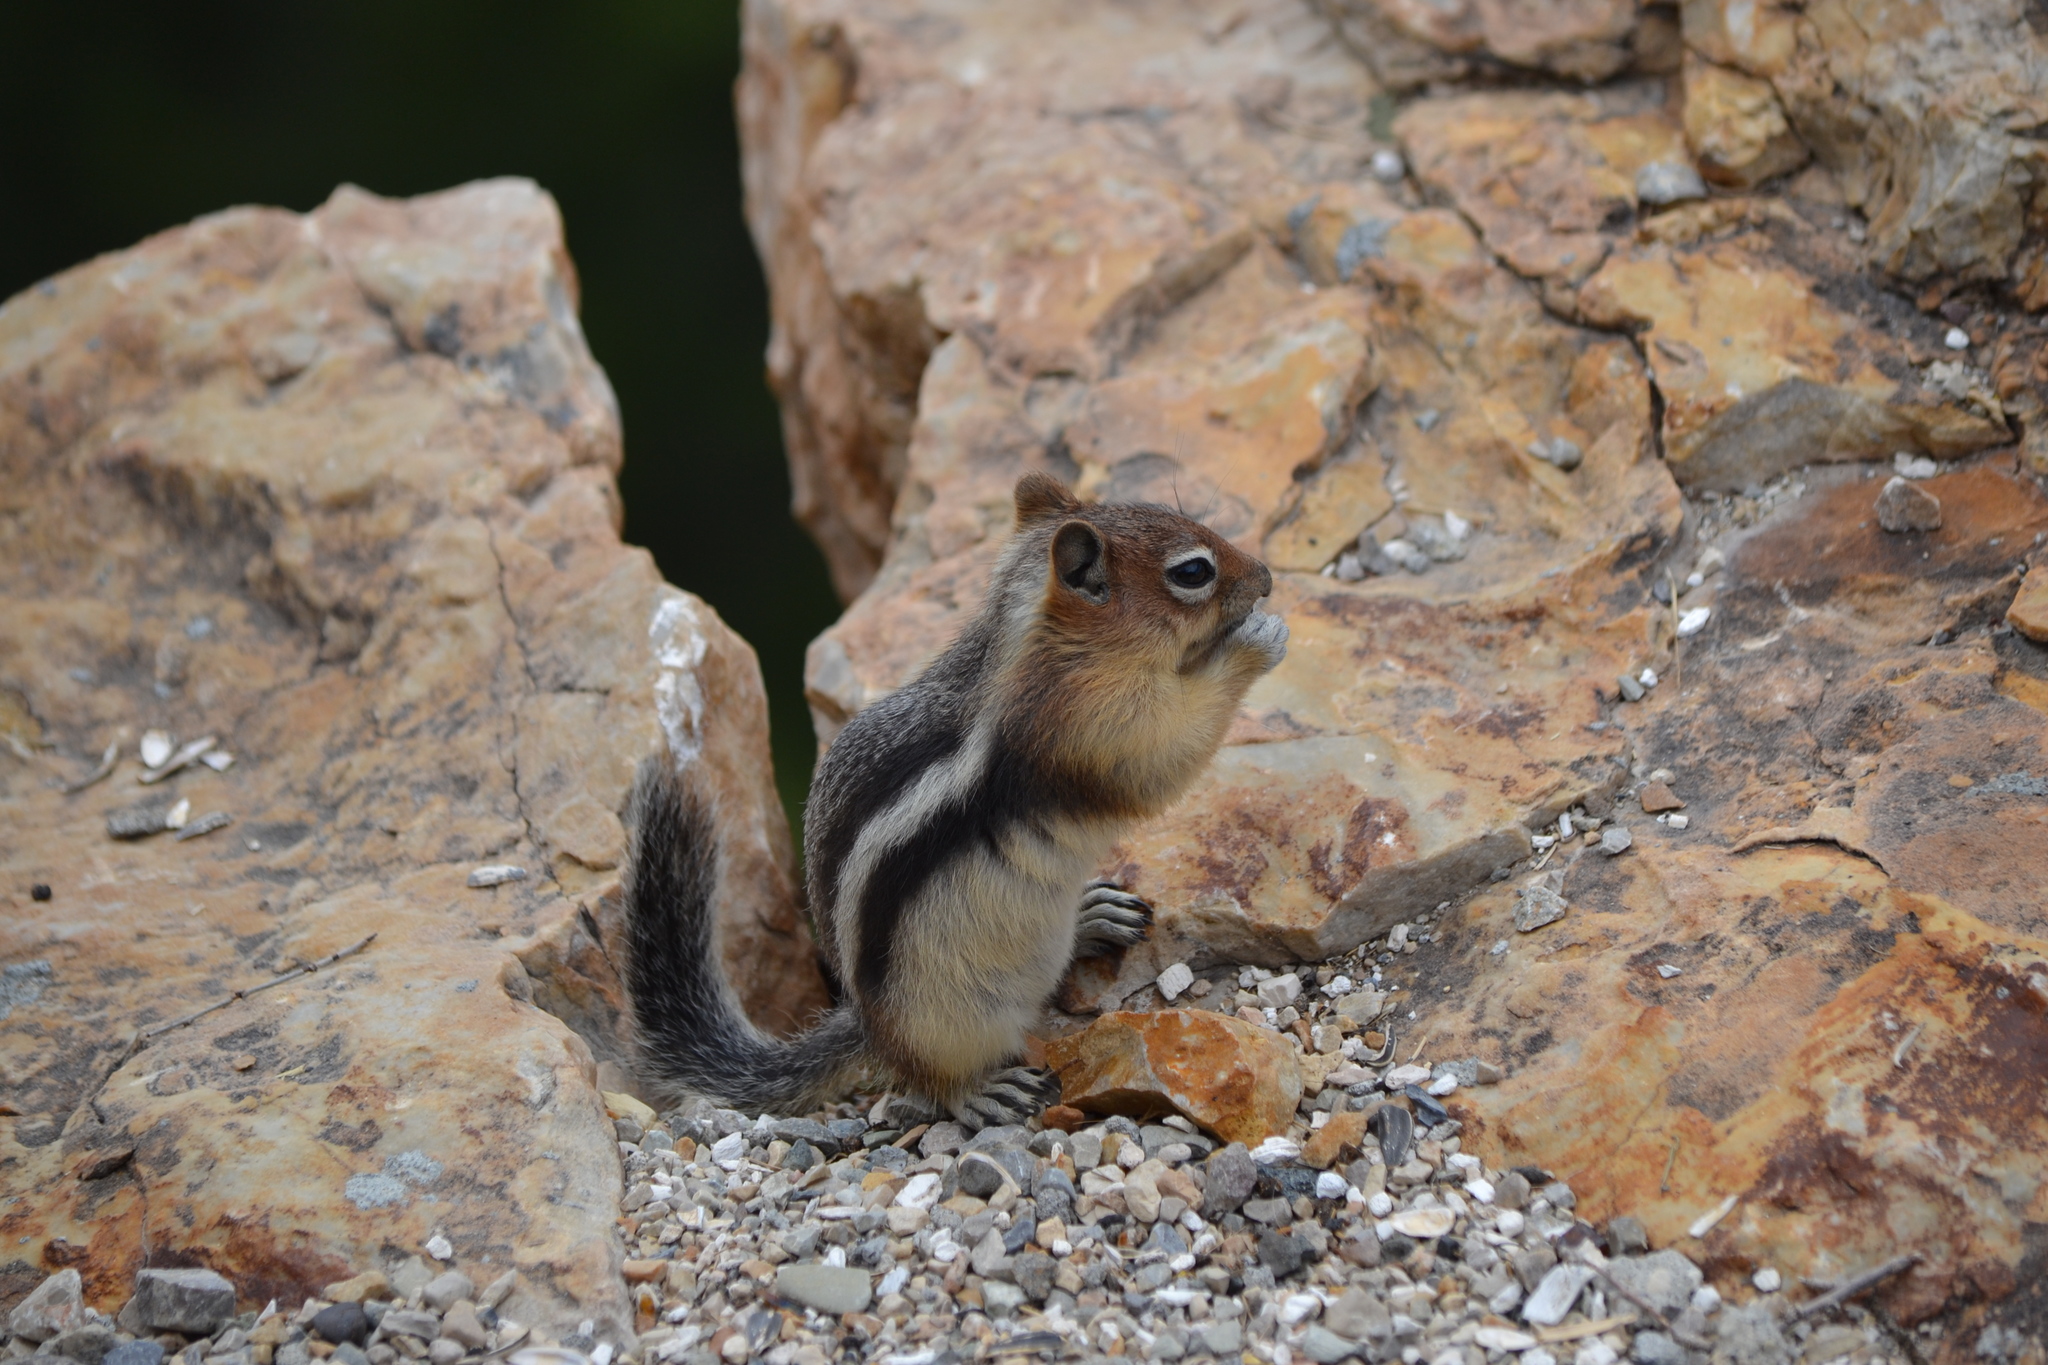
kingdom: Animalia
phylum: Chordata
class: Mammalia
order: Rodentia
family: Sciuridae
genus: Callospermophilus
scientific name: Callospermophilus lateralis
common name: Golden-mantled ground squirrel
